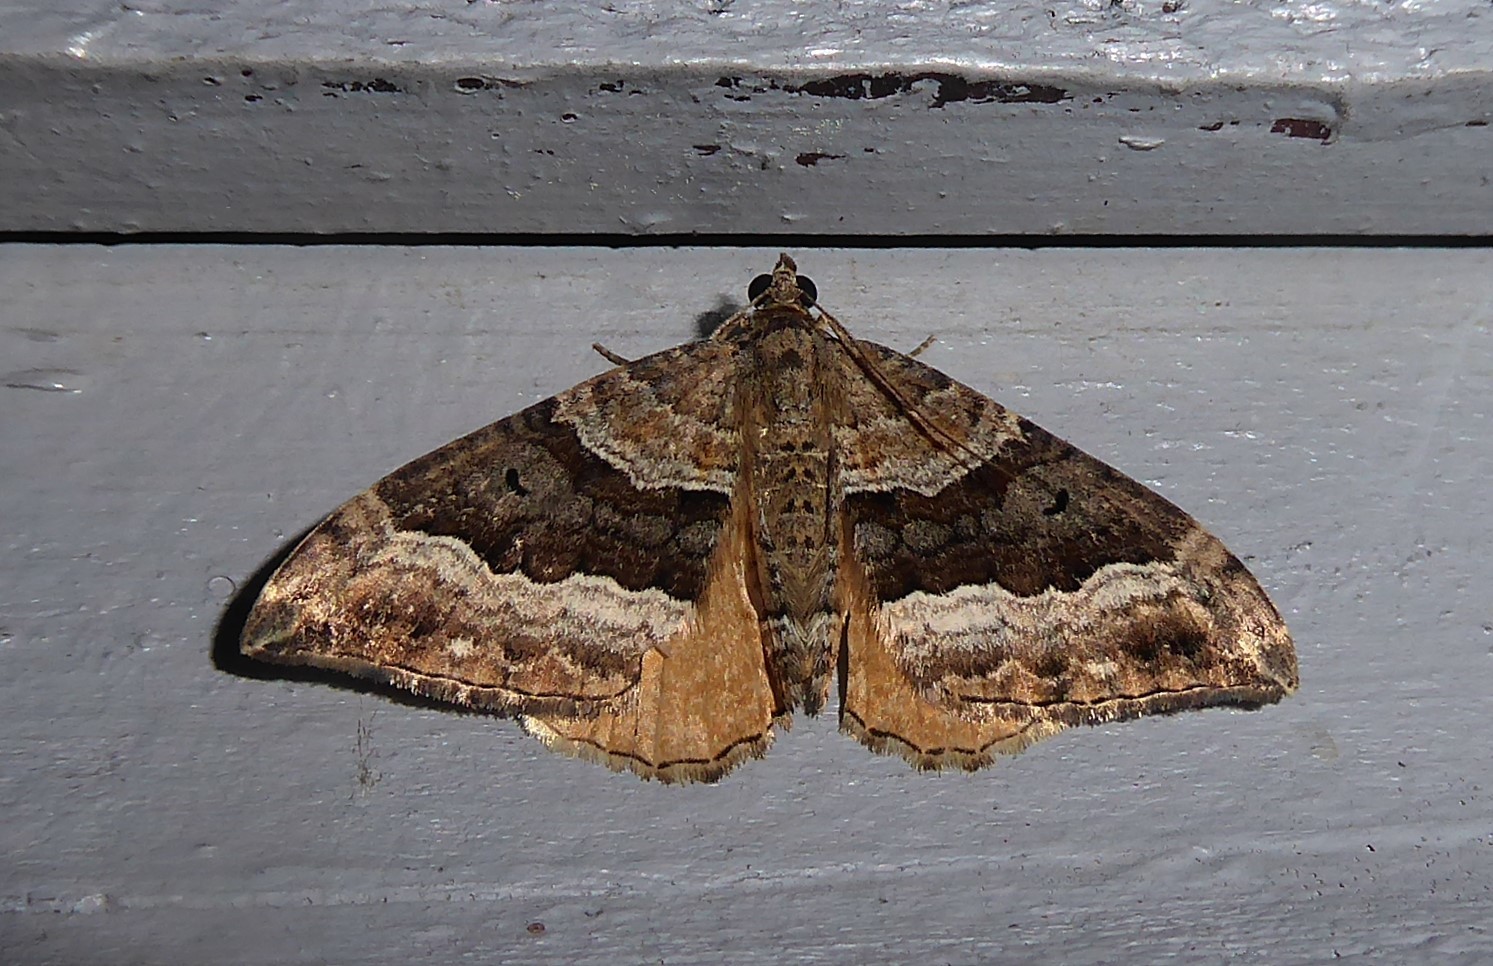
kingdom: Animalia
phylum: Arthropoda
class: Insecta
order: Lepidoptera
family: Geometridae
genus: Hydriomena
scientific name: Hydriomena deltoidata
